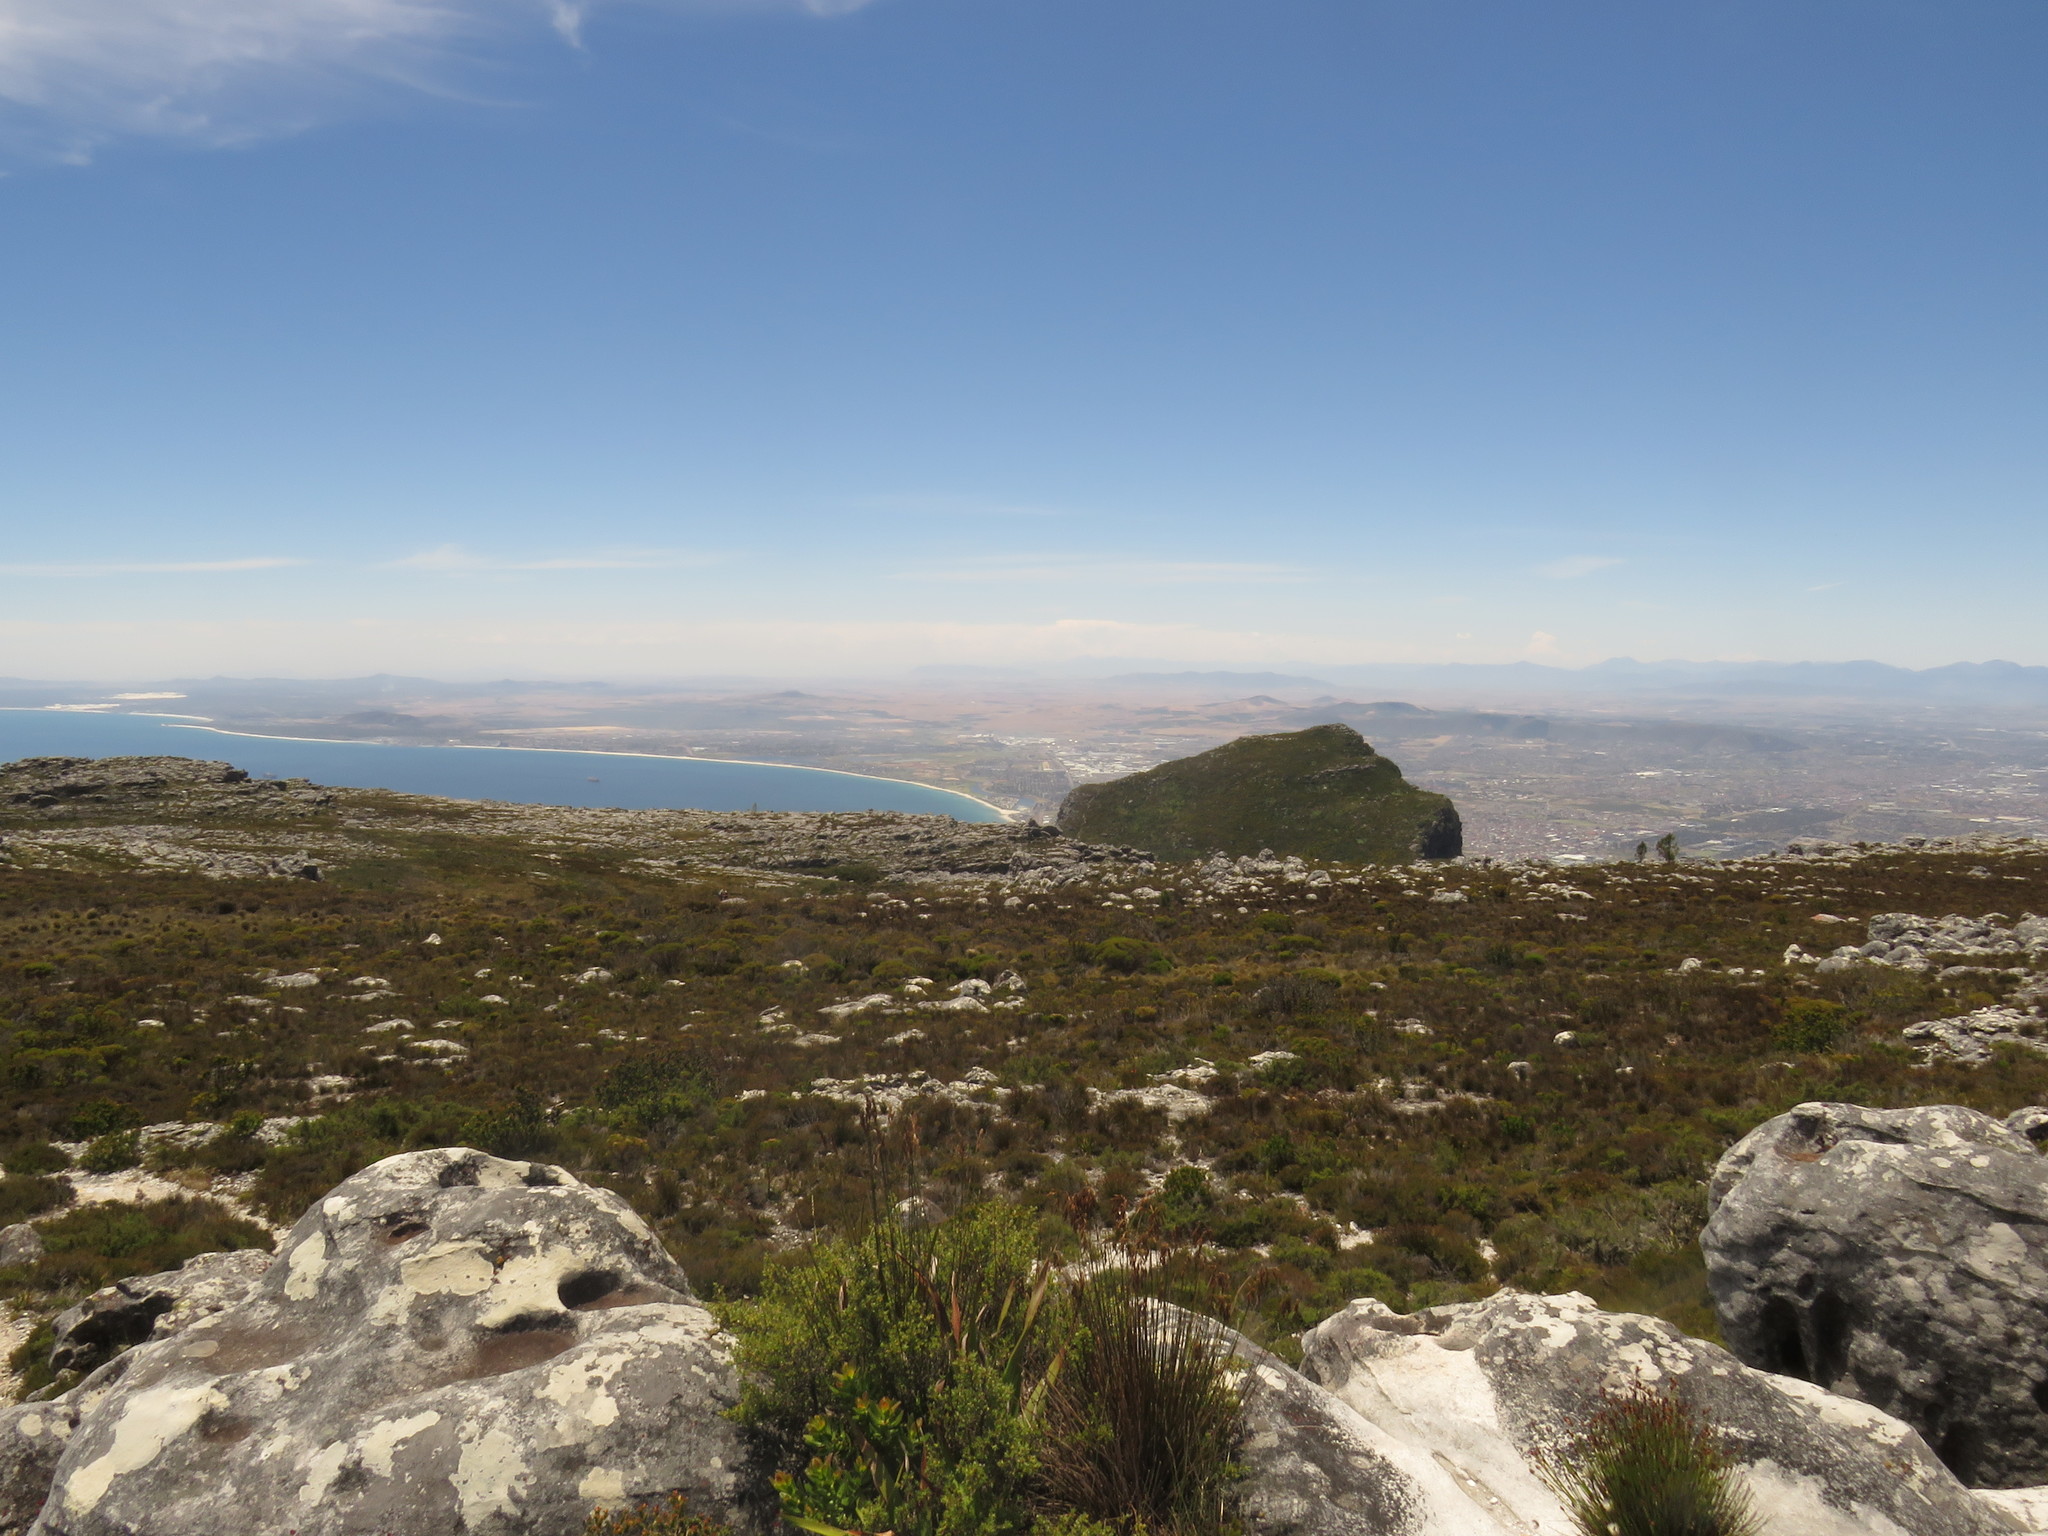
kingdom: Plantae
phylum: Tracheophyta
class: Liliopsida
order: Asparagales
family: Iridaceae
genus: Watsonia
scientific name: Watsonia tabularis
